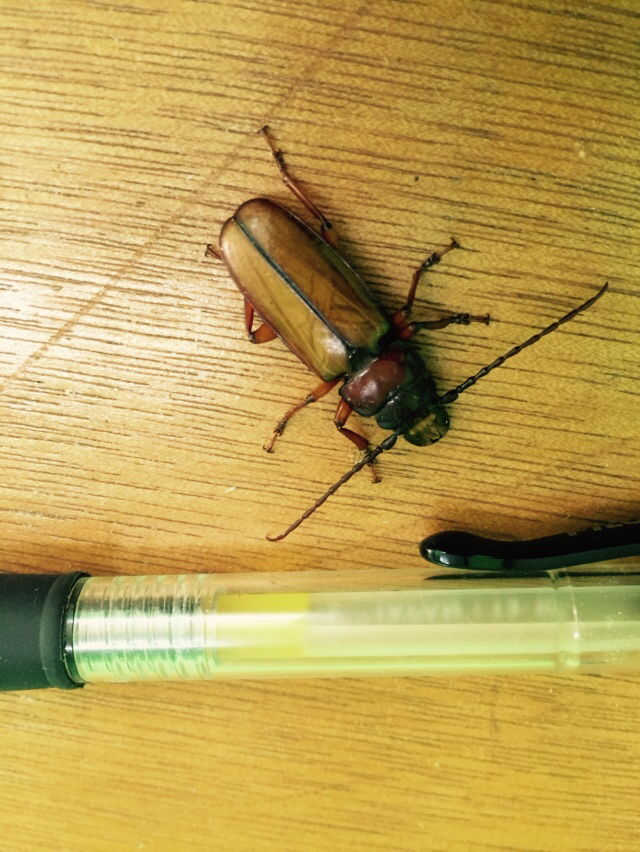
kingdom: Animalia
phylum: Arthropoda
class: Insecta
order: Coleoptera
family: Cerambycidae
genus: Archetypus
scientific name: Archetypus fulvipennis
